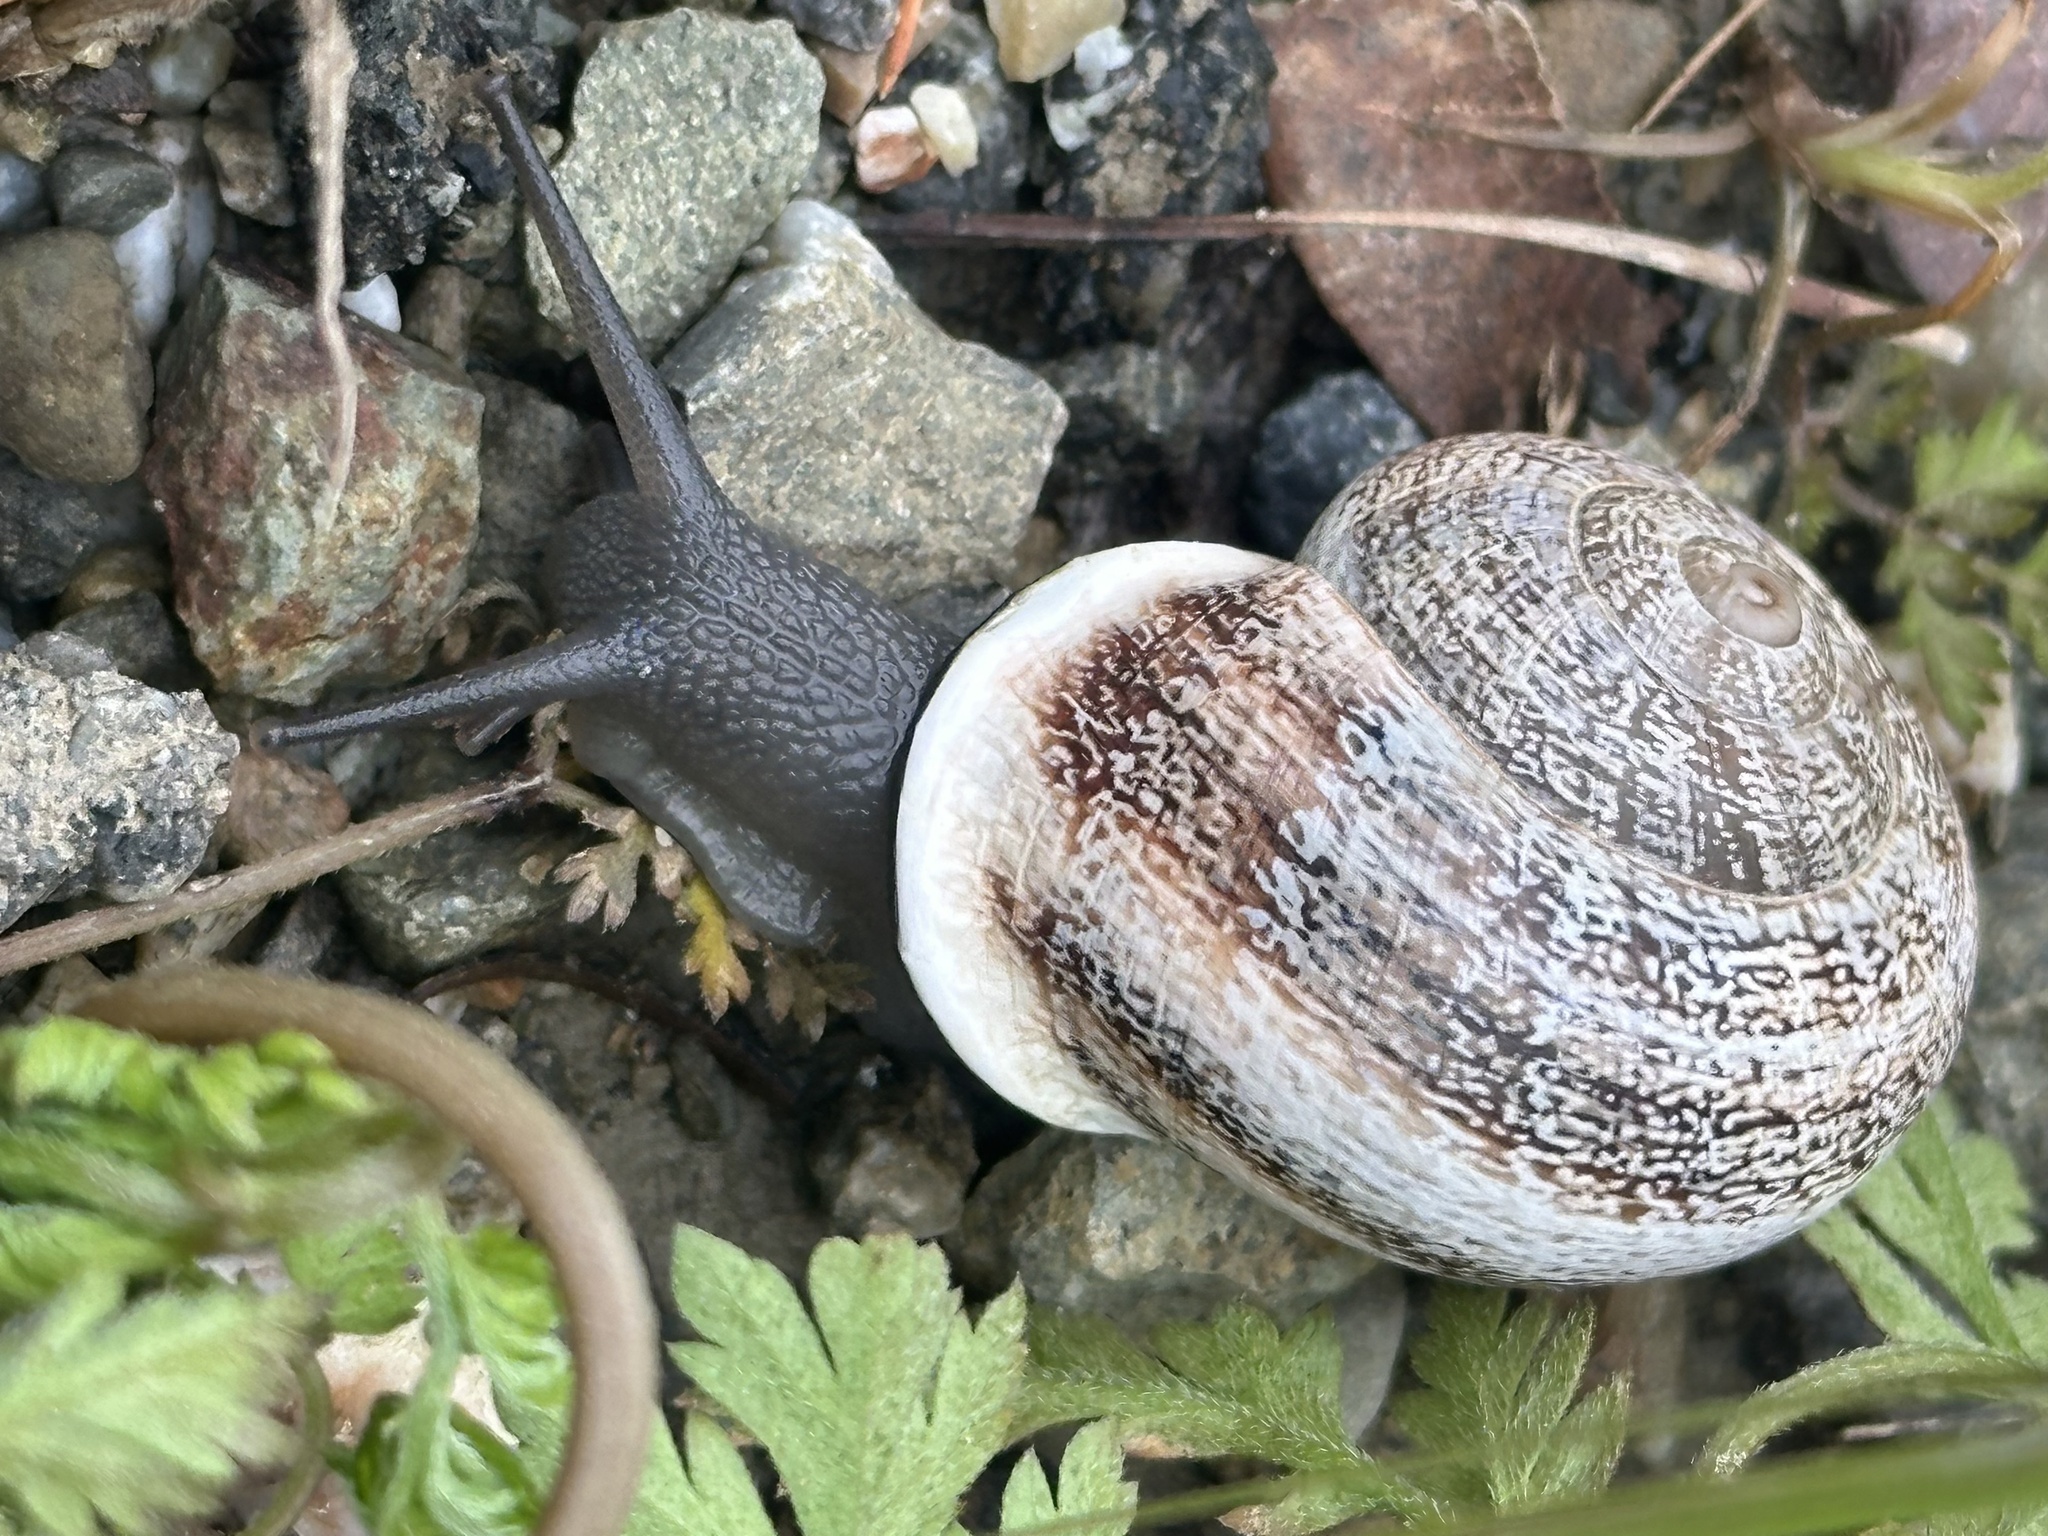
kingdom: Animalia
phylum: Mollusca
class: Gastropoda
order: Stylommatophora
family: Helicidae
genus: Otala
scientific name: Otala lactea
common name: Milk snail
